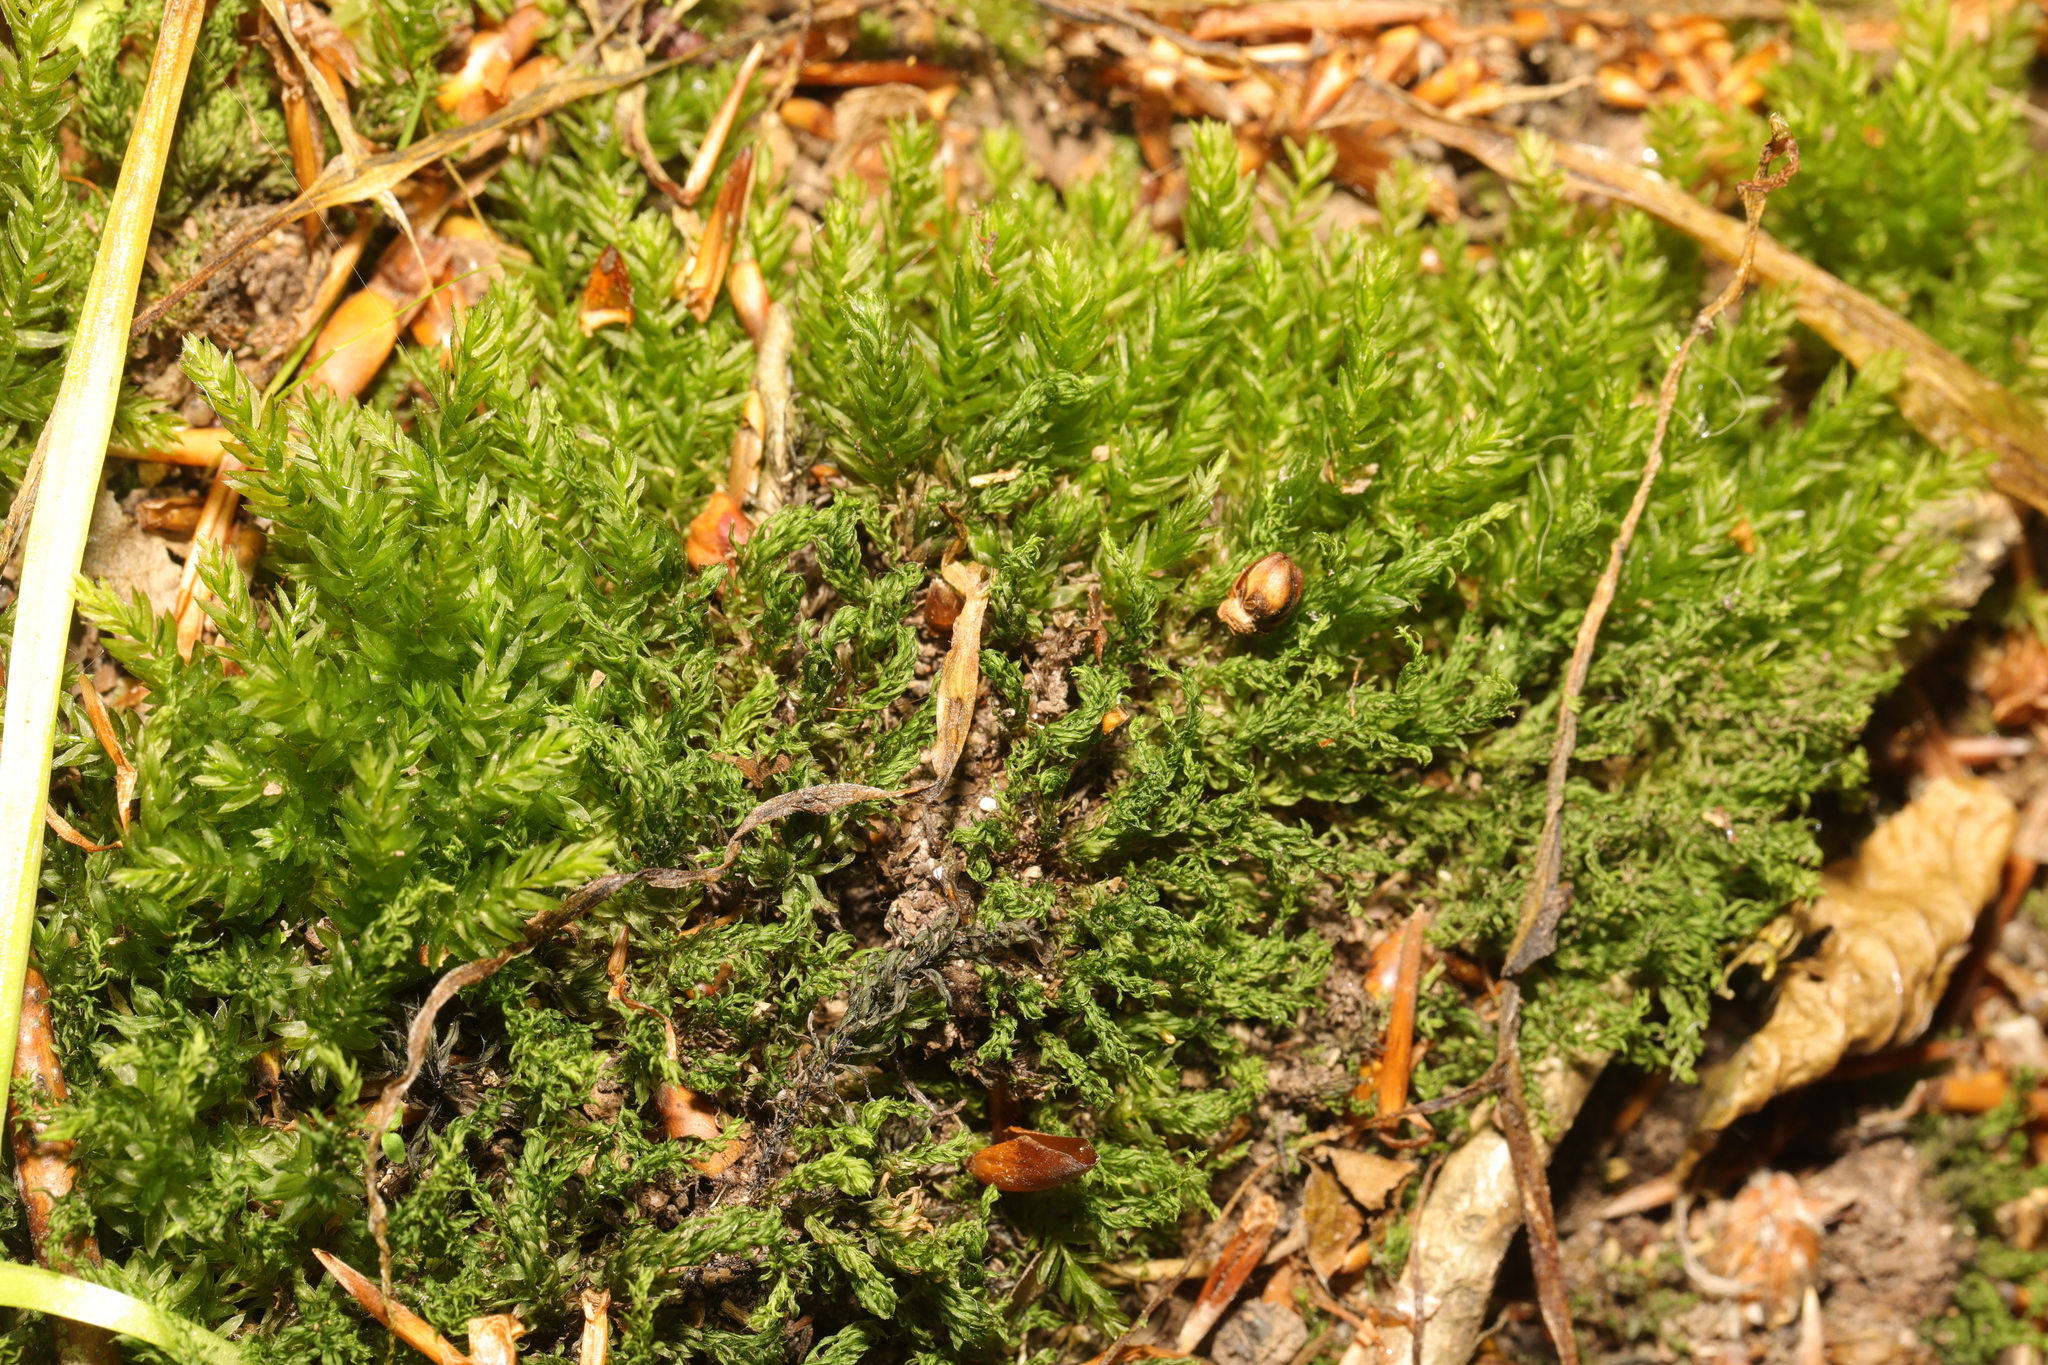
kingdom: Plantae
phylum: Bryophyta
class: Bryopsida
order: Bryales
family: Mniaceae
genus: Mnium
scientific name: Mnium hornum
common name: Swan's-neck leafy moss
